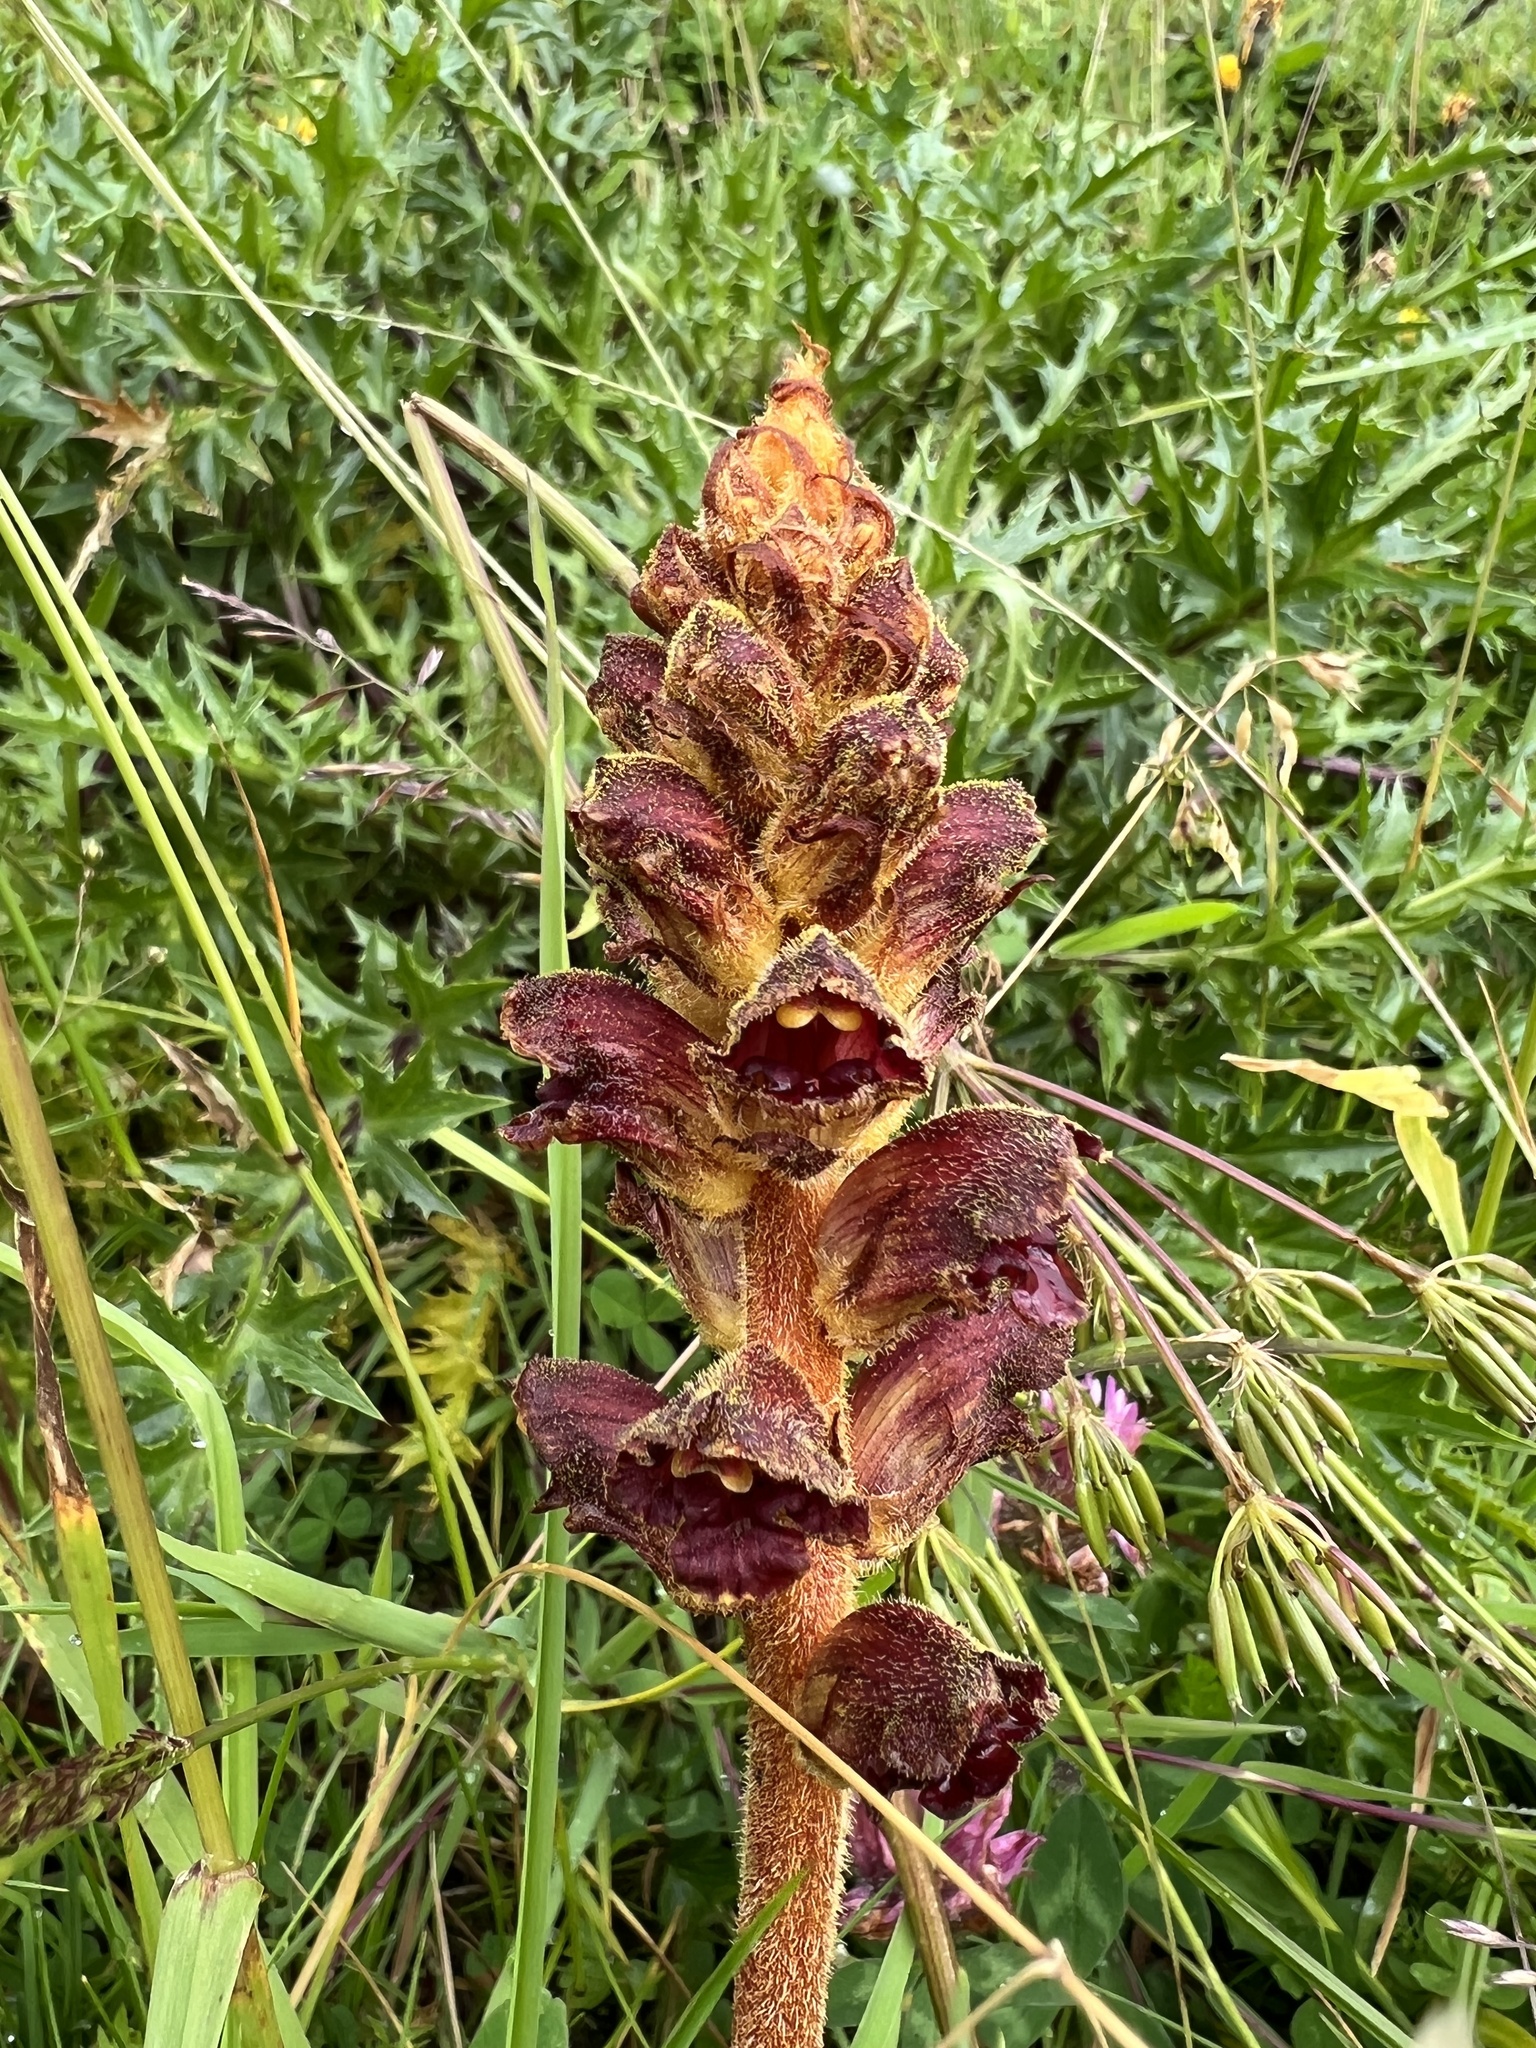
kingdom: Plantae
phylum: Tracheophyta
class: Magnoliopsida
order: Lamiales
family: Orobanchaceae
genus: Orobanche
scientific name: Orobanche gracilis
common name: Slender broomrape
